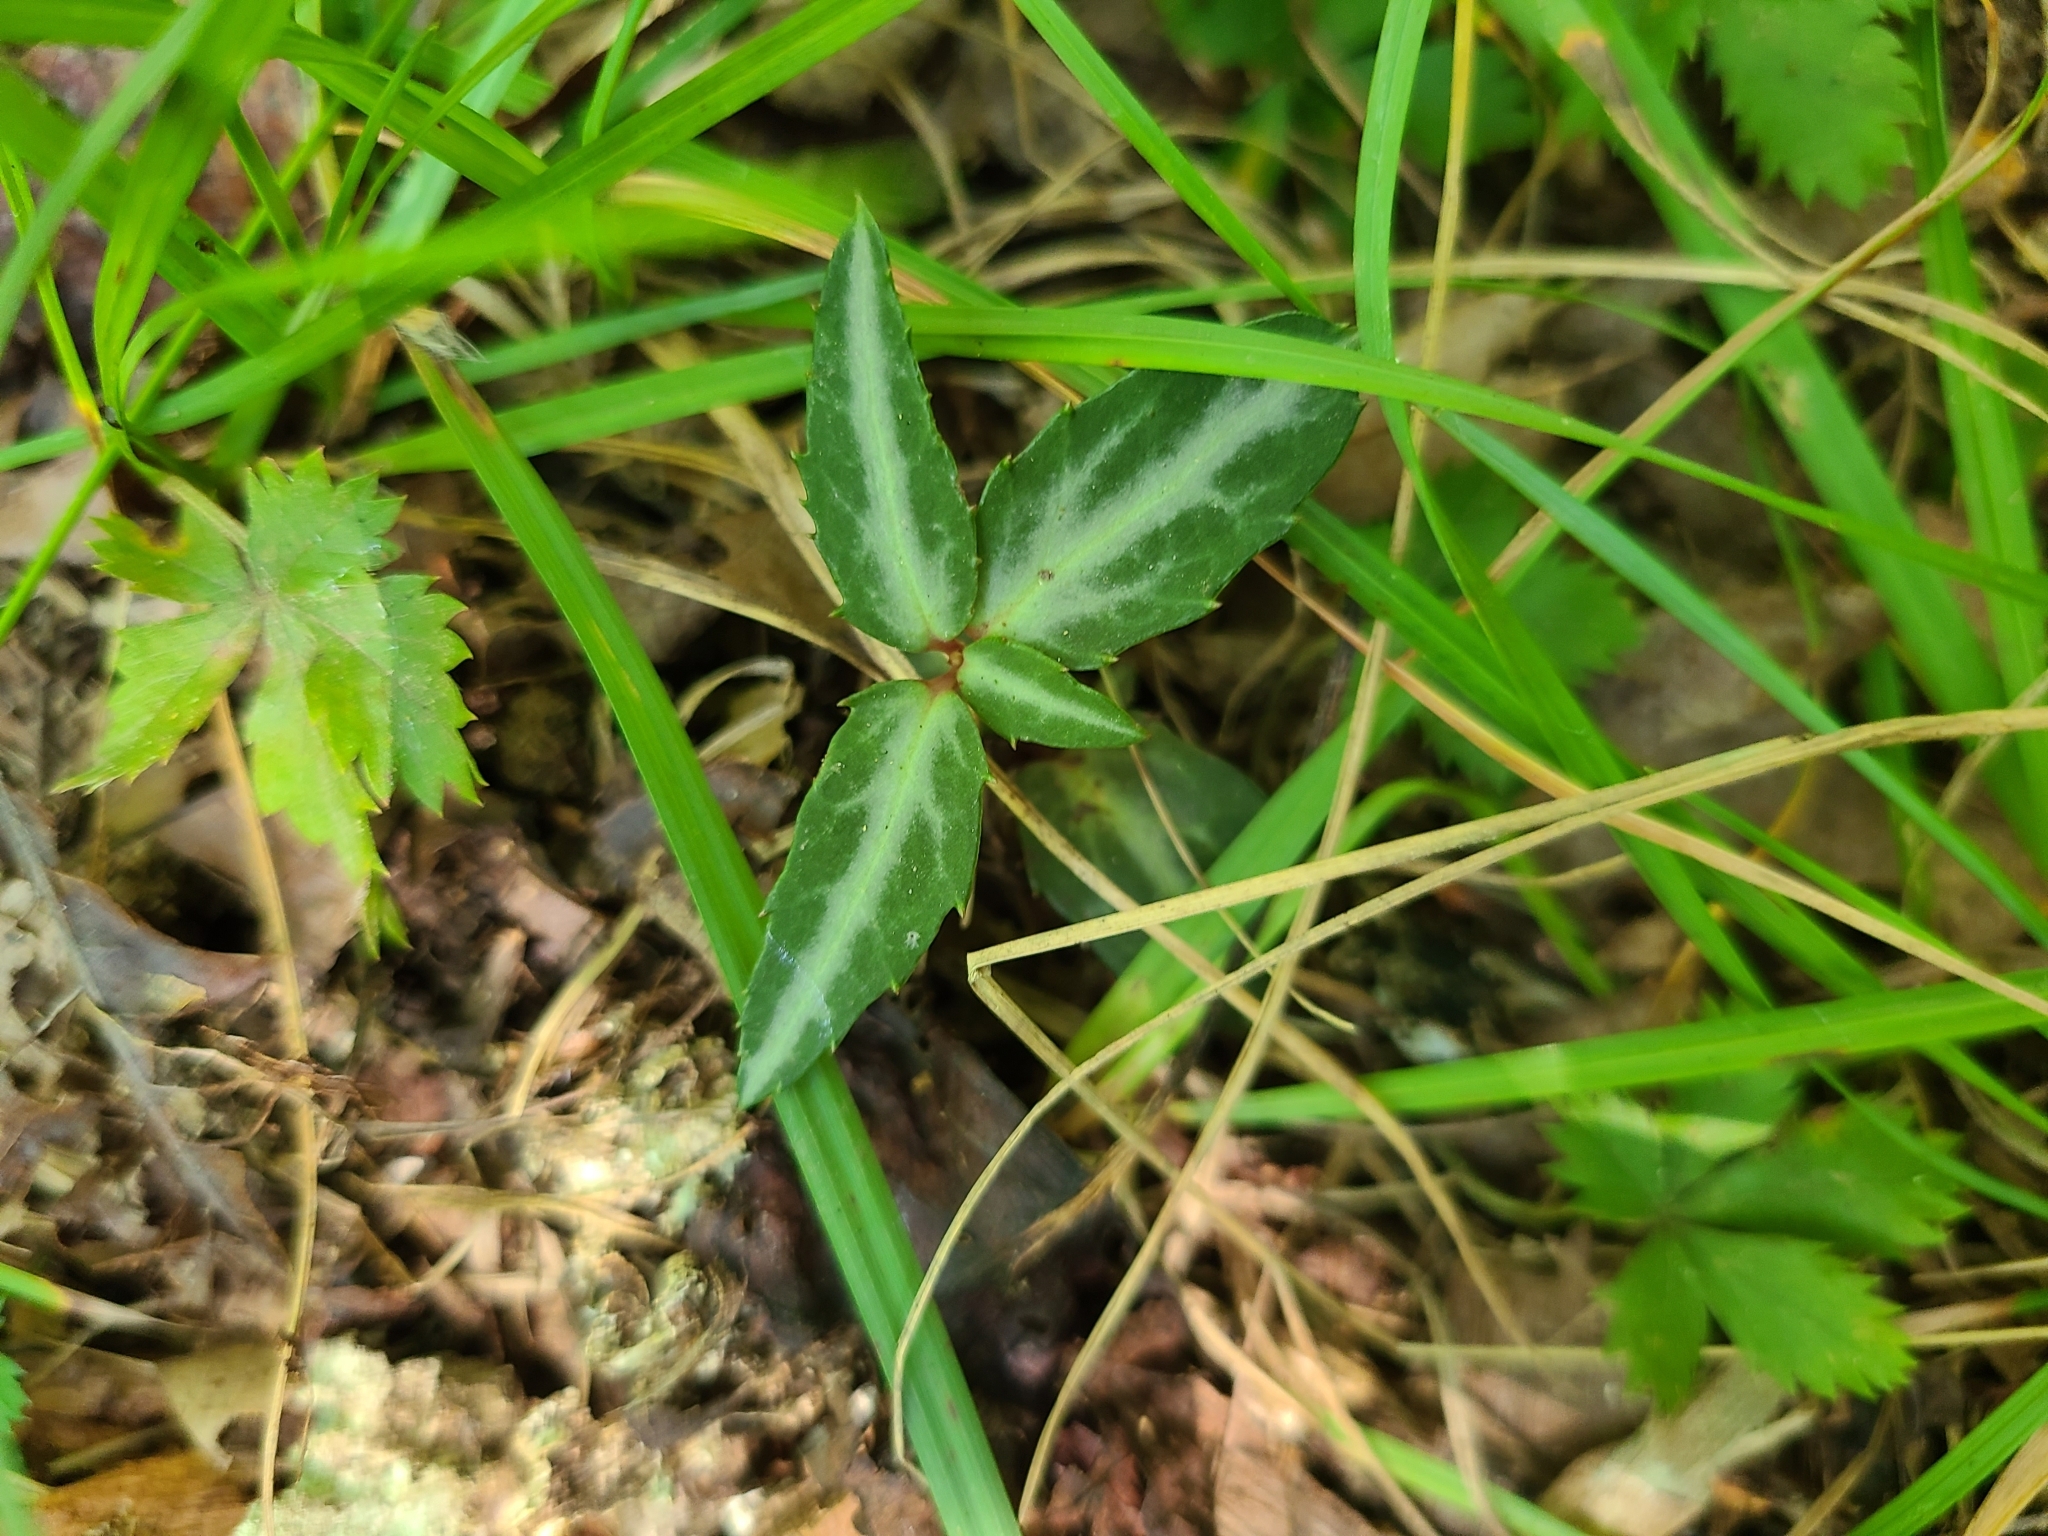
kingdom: Plantae
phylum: Tracheophyta
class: Magnoliopsida
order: Ericales
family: Ericaceae
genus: Chimaphila
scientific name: Chimaphila maculata
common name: Spotted pipsissewa
